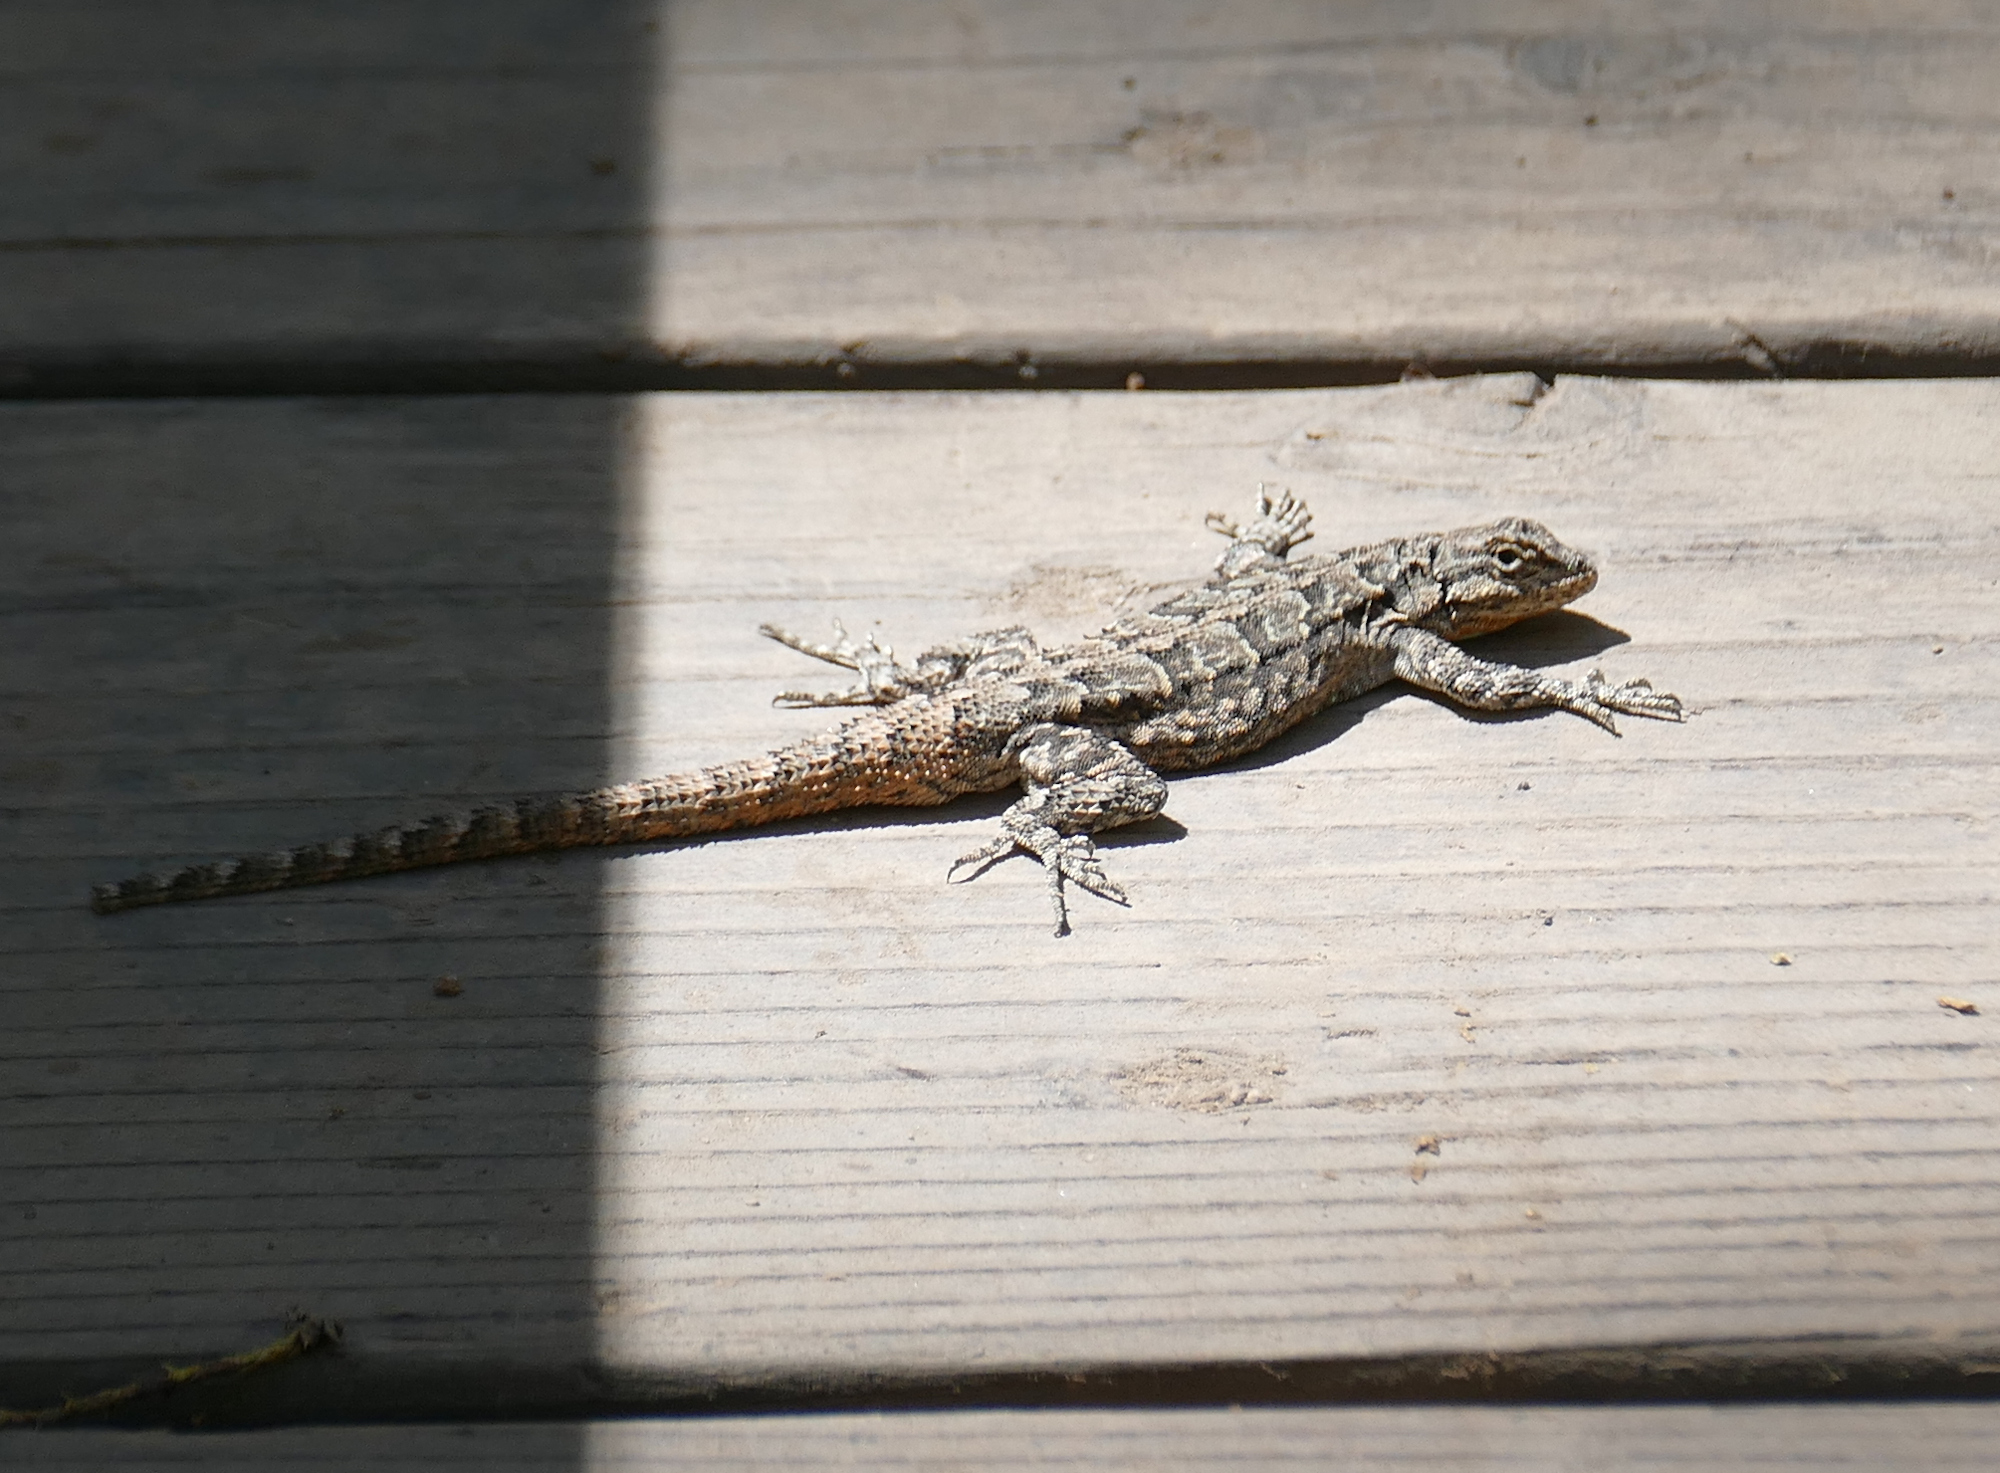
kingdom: Animalia
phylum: Chordata
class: Squamata
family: Phrynosomatidae
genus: Urosaurus
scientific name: Urosaurus ornatus
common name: Ornate tree lizard
